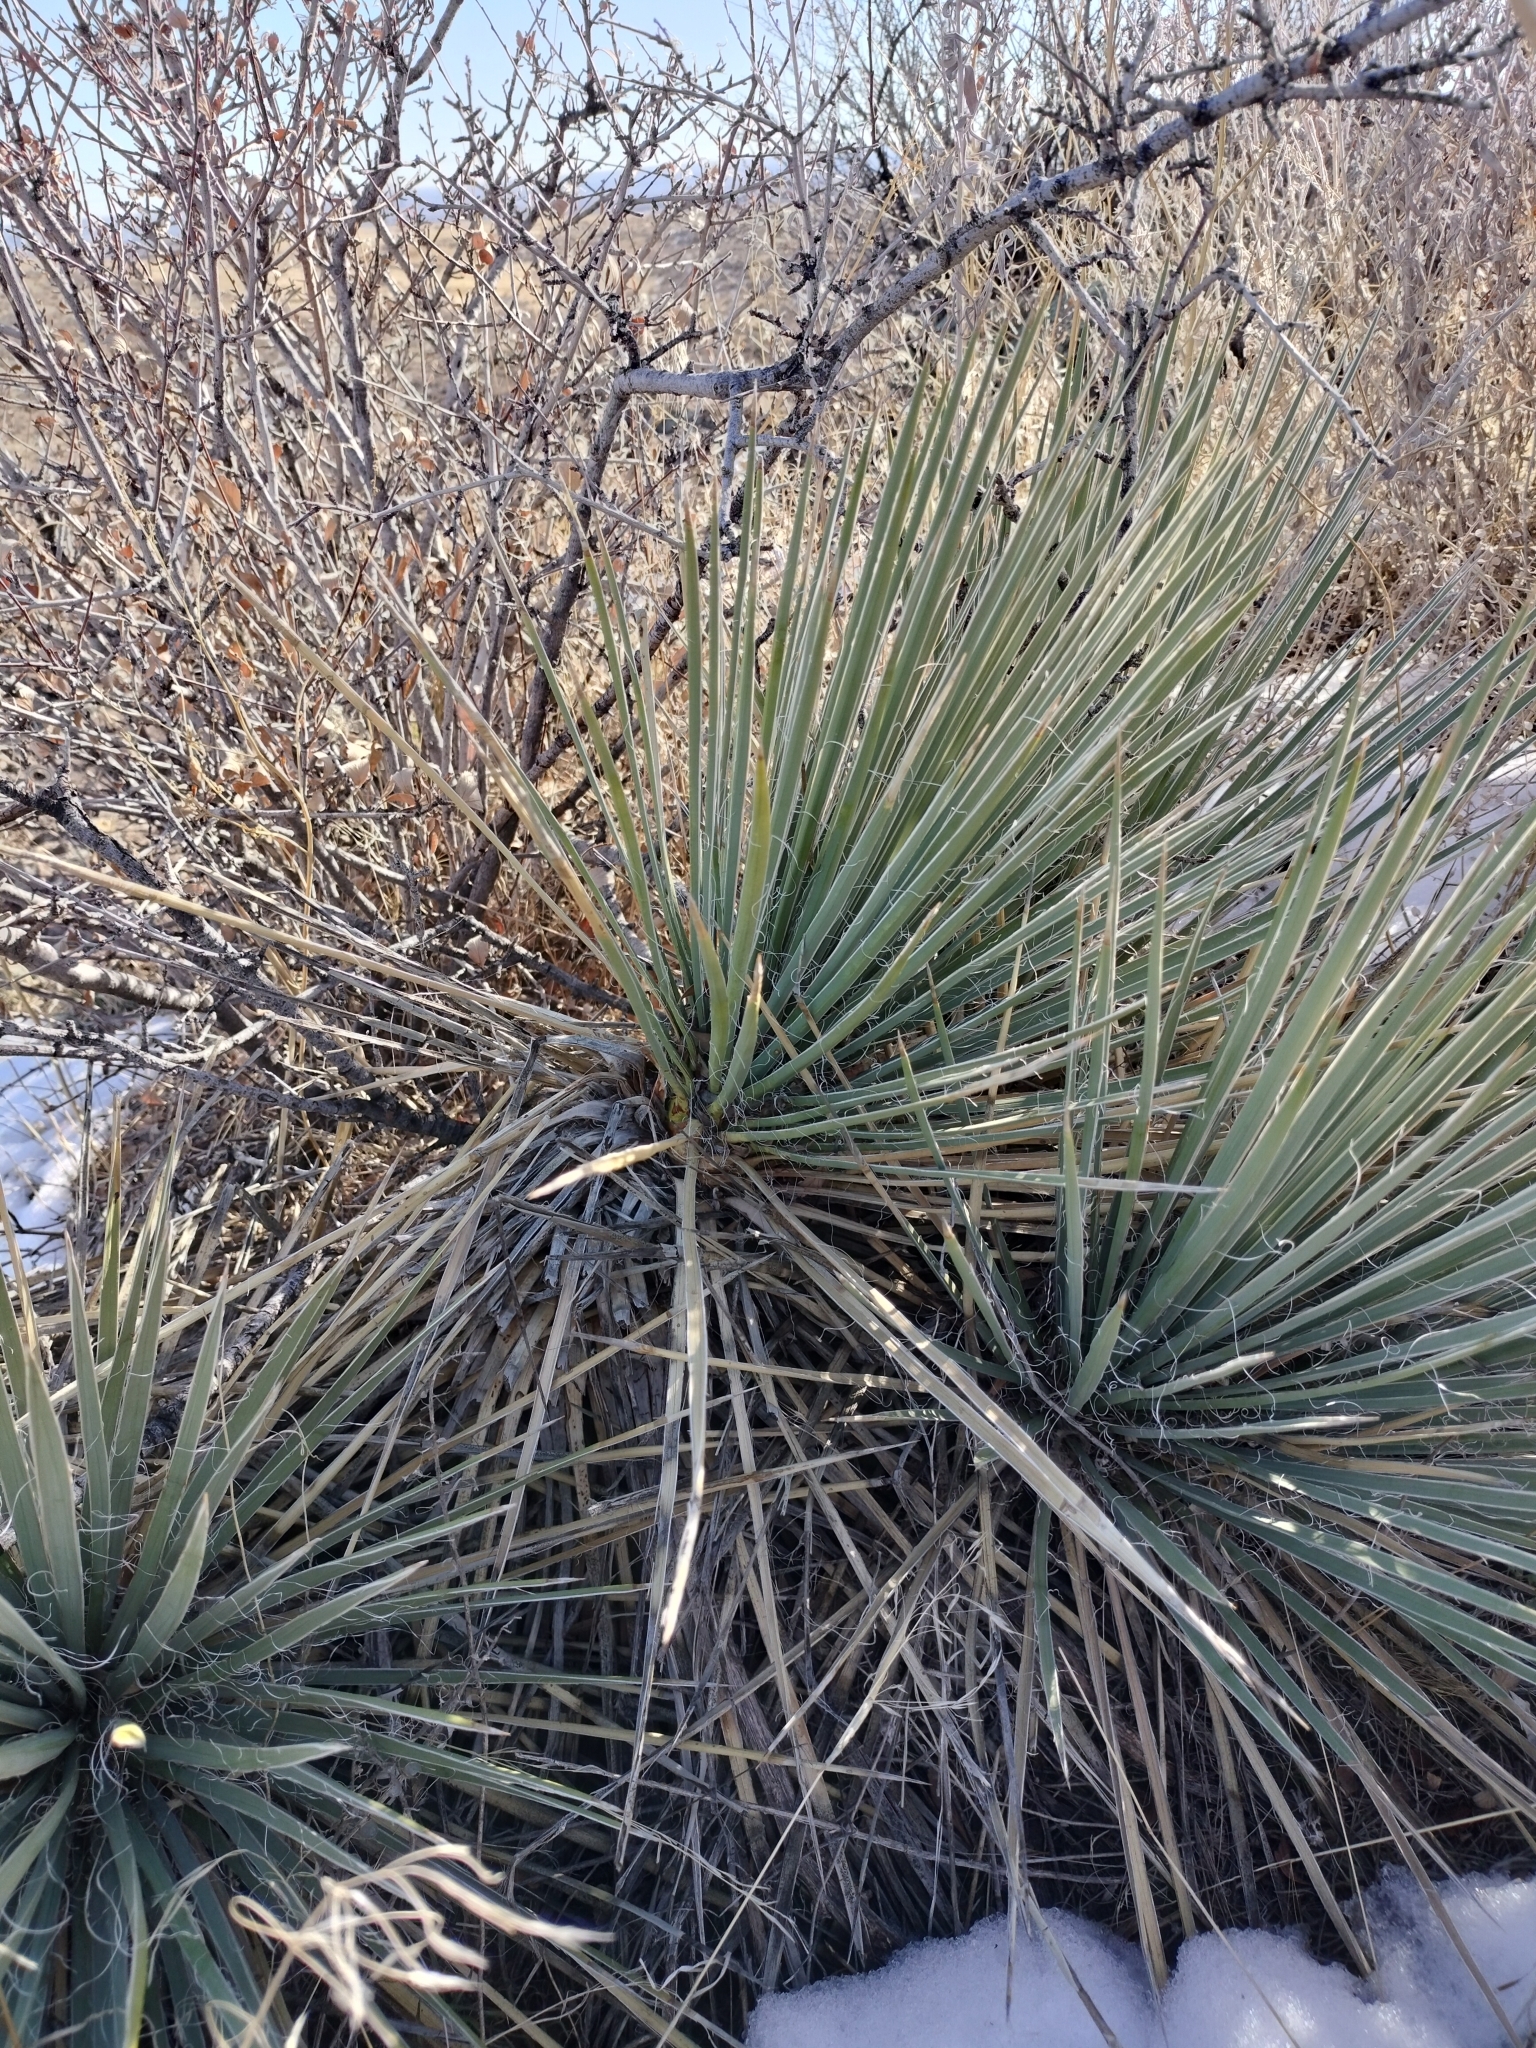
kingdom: Plantae
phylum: Tracheophyta
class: Liliopsida
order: Asparagales
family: Asparagaceae
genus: Yucca
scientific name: Yucca glauca
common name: Great plains yucca
